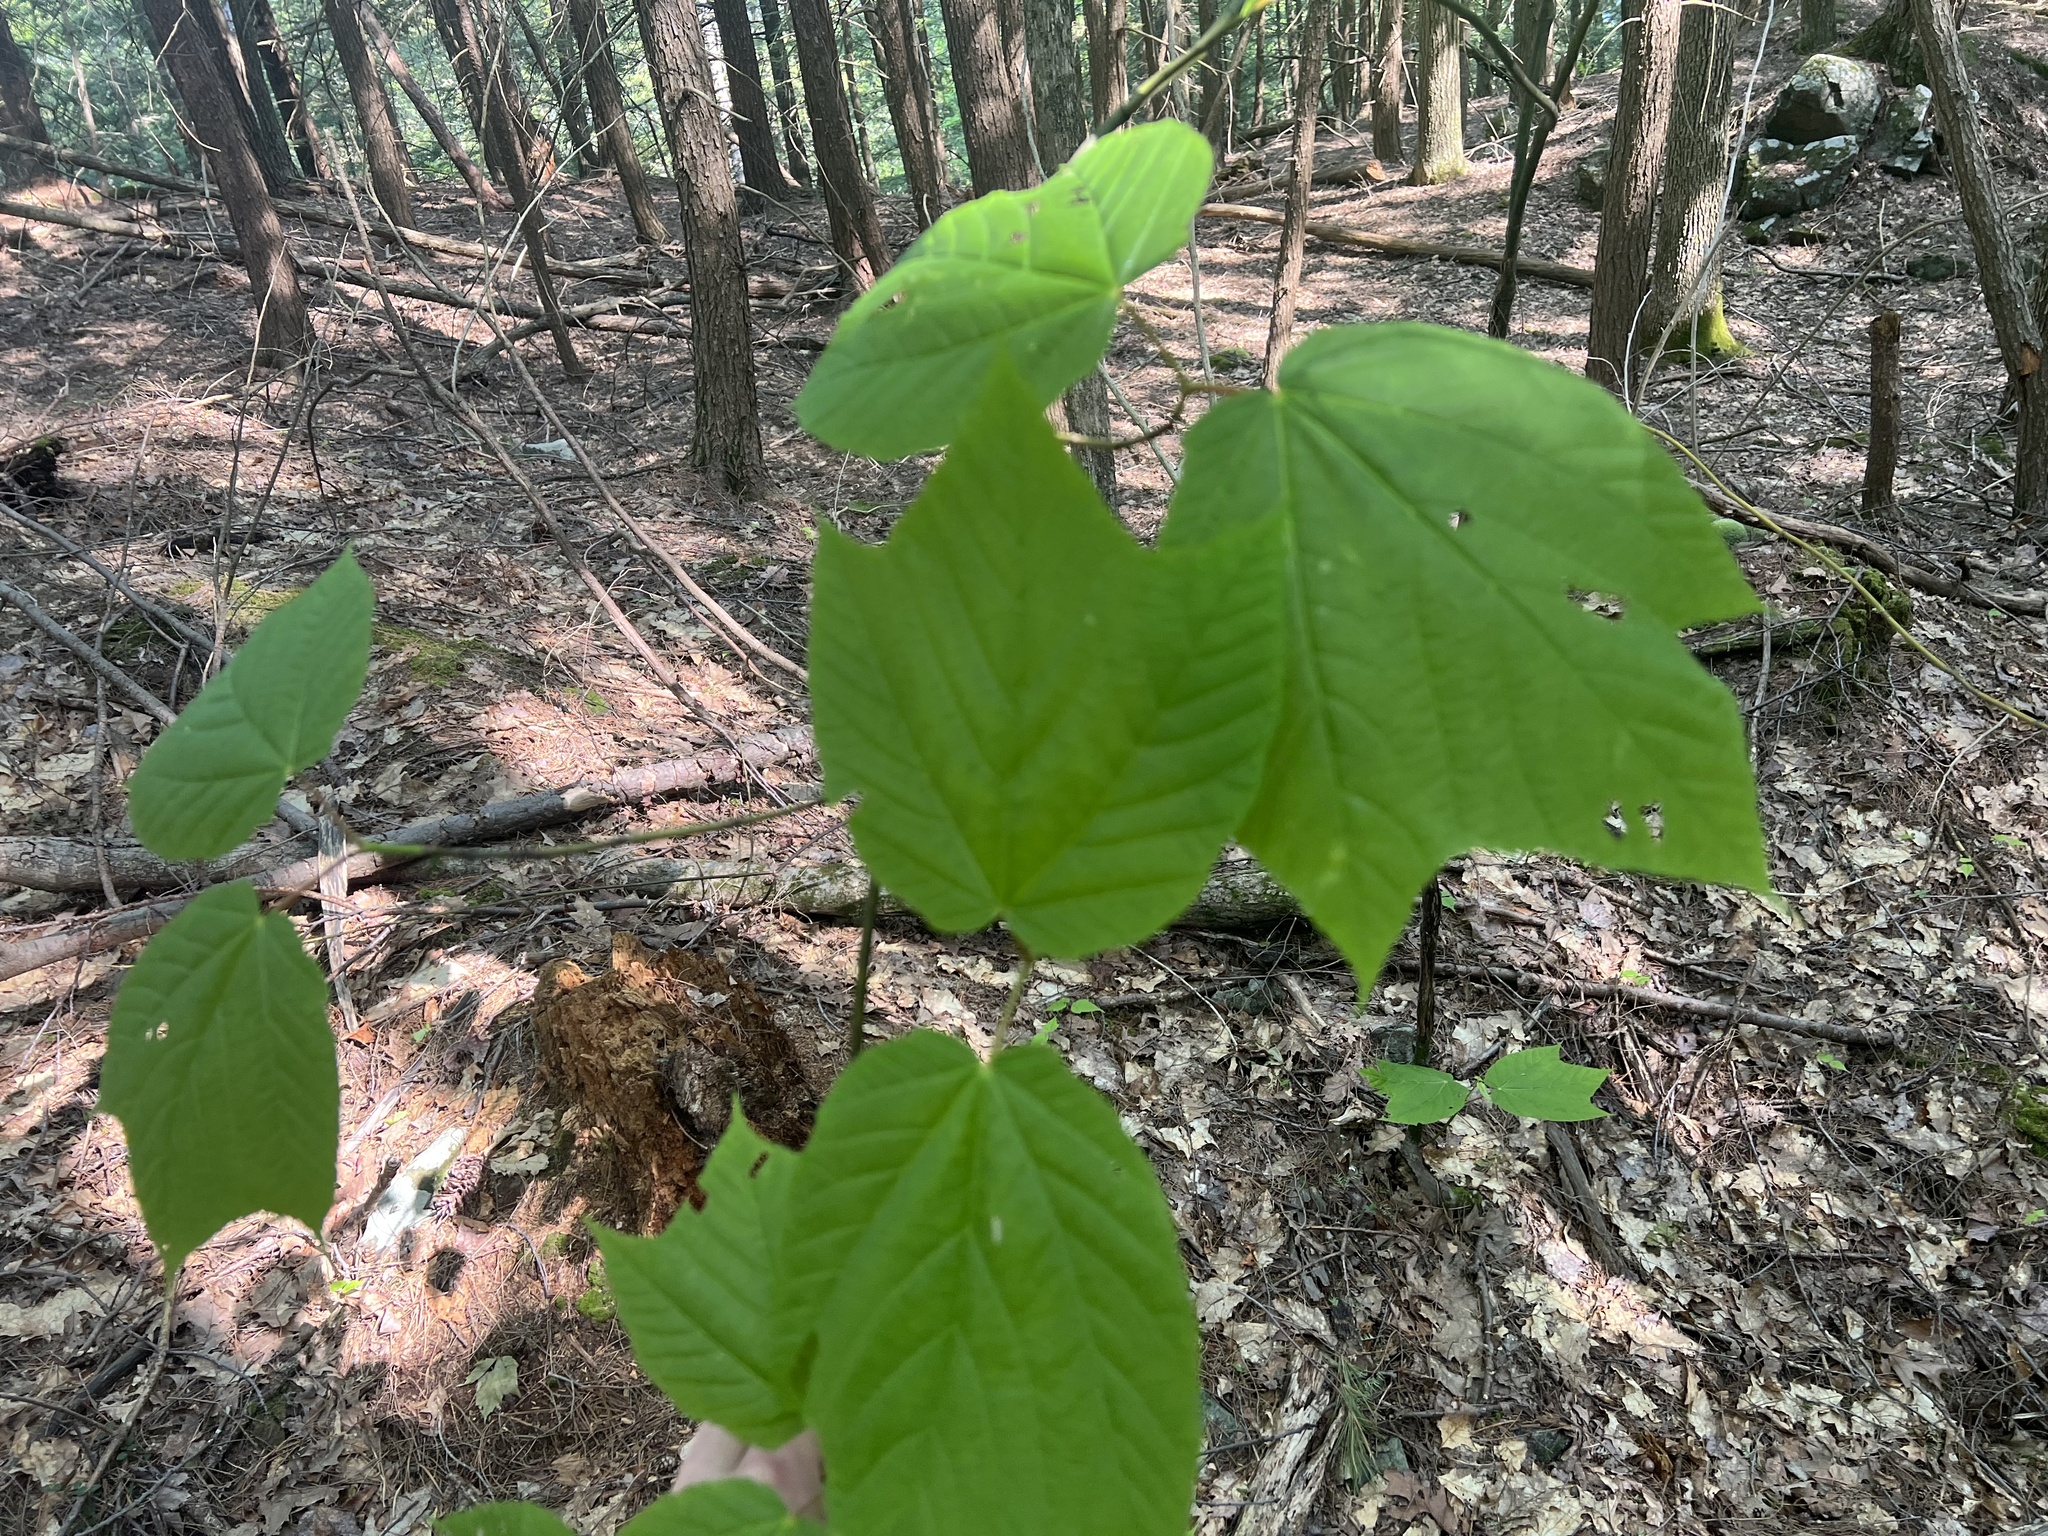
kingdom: Plantae
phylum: Tracheophyta
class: Magnoliopsida
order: Sapindales
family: Sapindaceae
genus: Acer
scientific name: Acer pensylvanicum
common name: Moosewood
